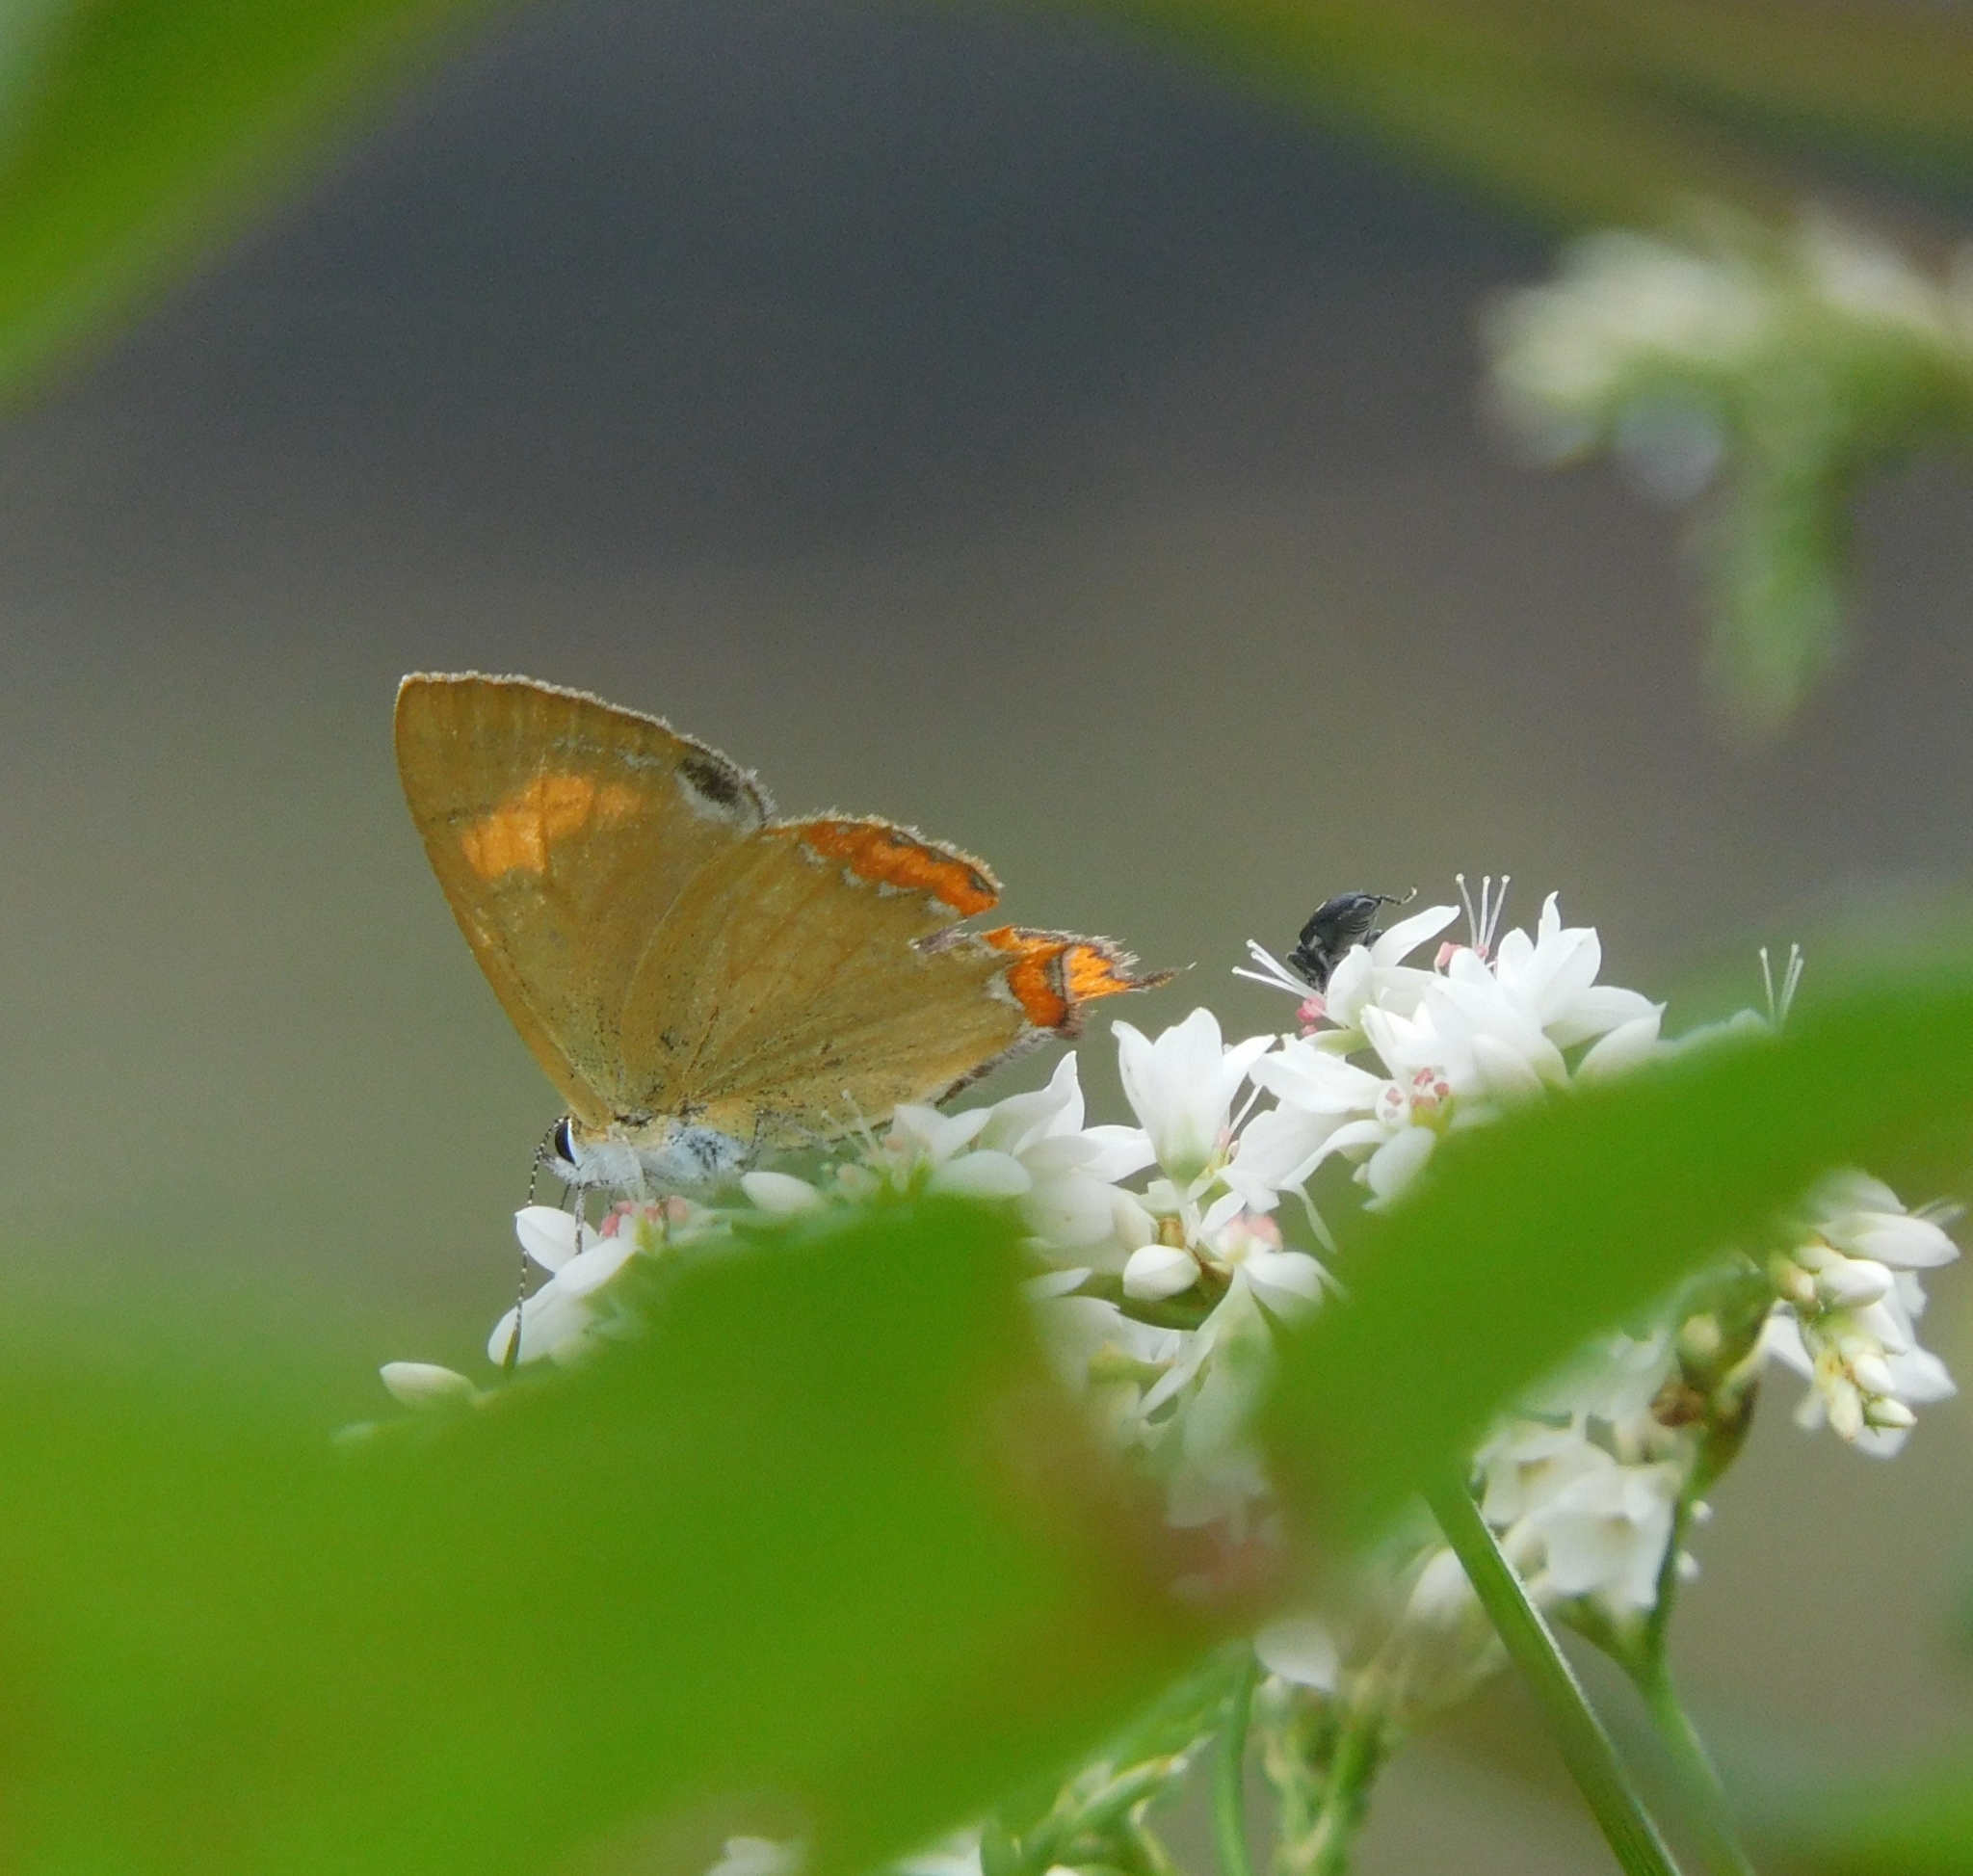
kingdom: Animalia
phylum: Arthropoda
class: Insecta
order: Lepidoptera
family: Lycaenidae
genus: Heliophorus
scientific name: Heliophorus
